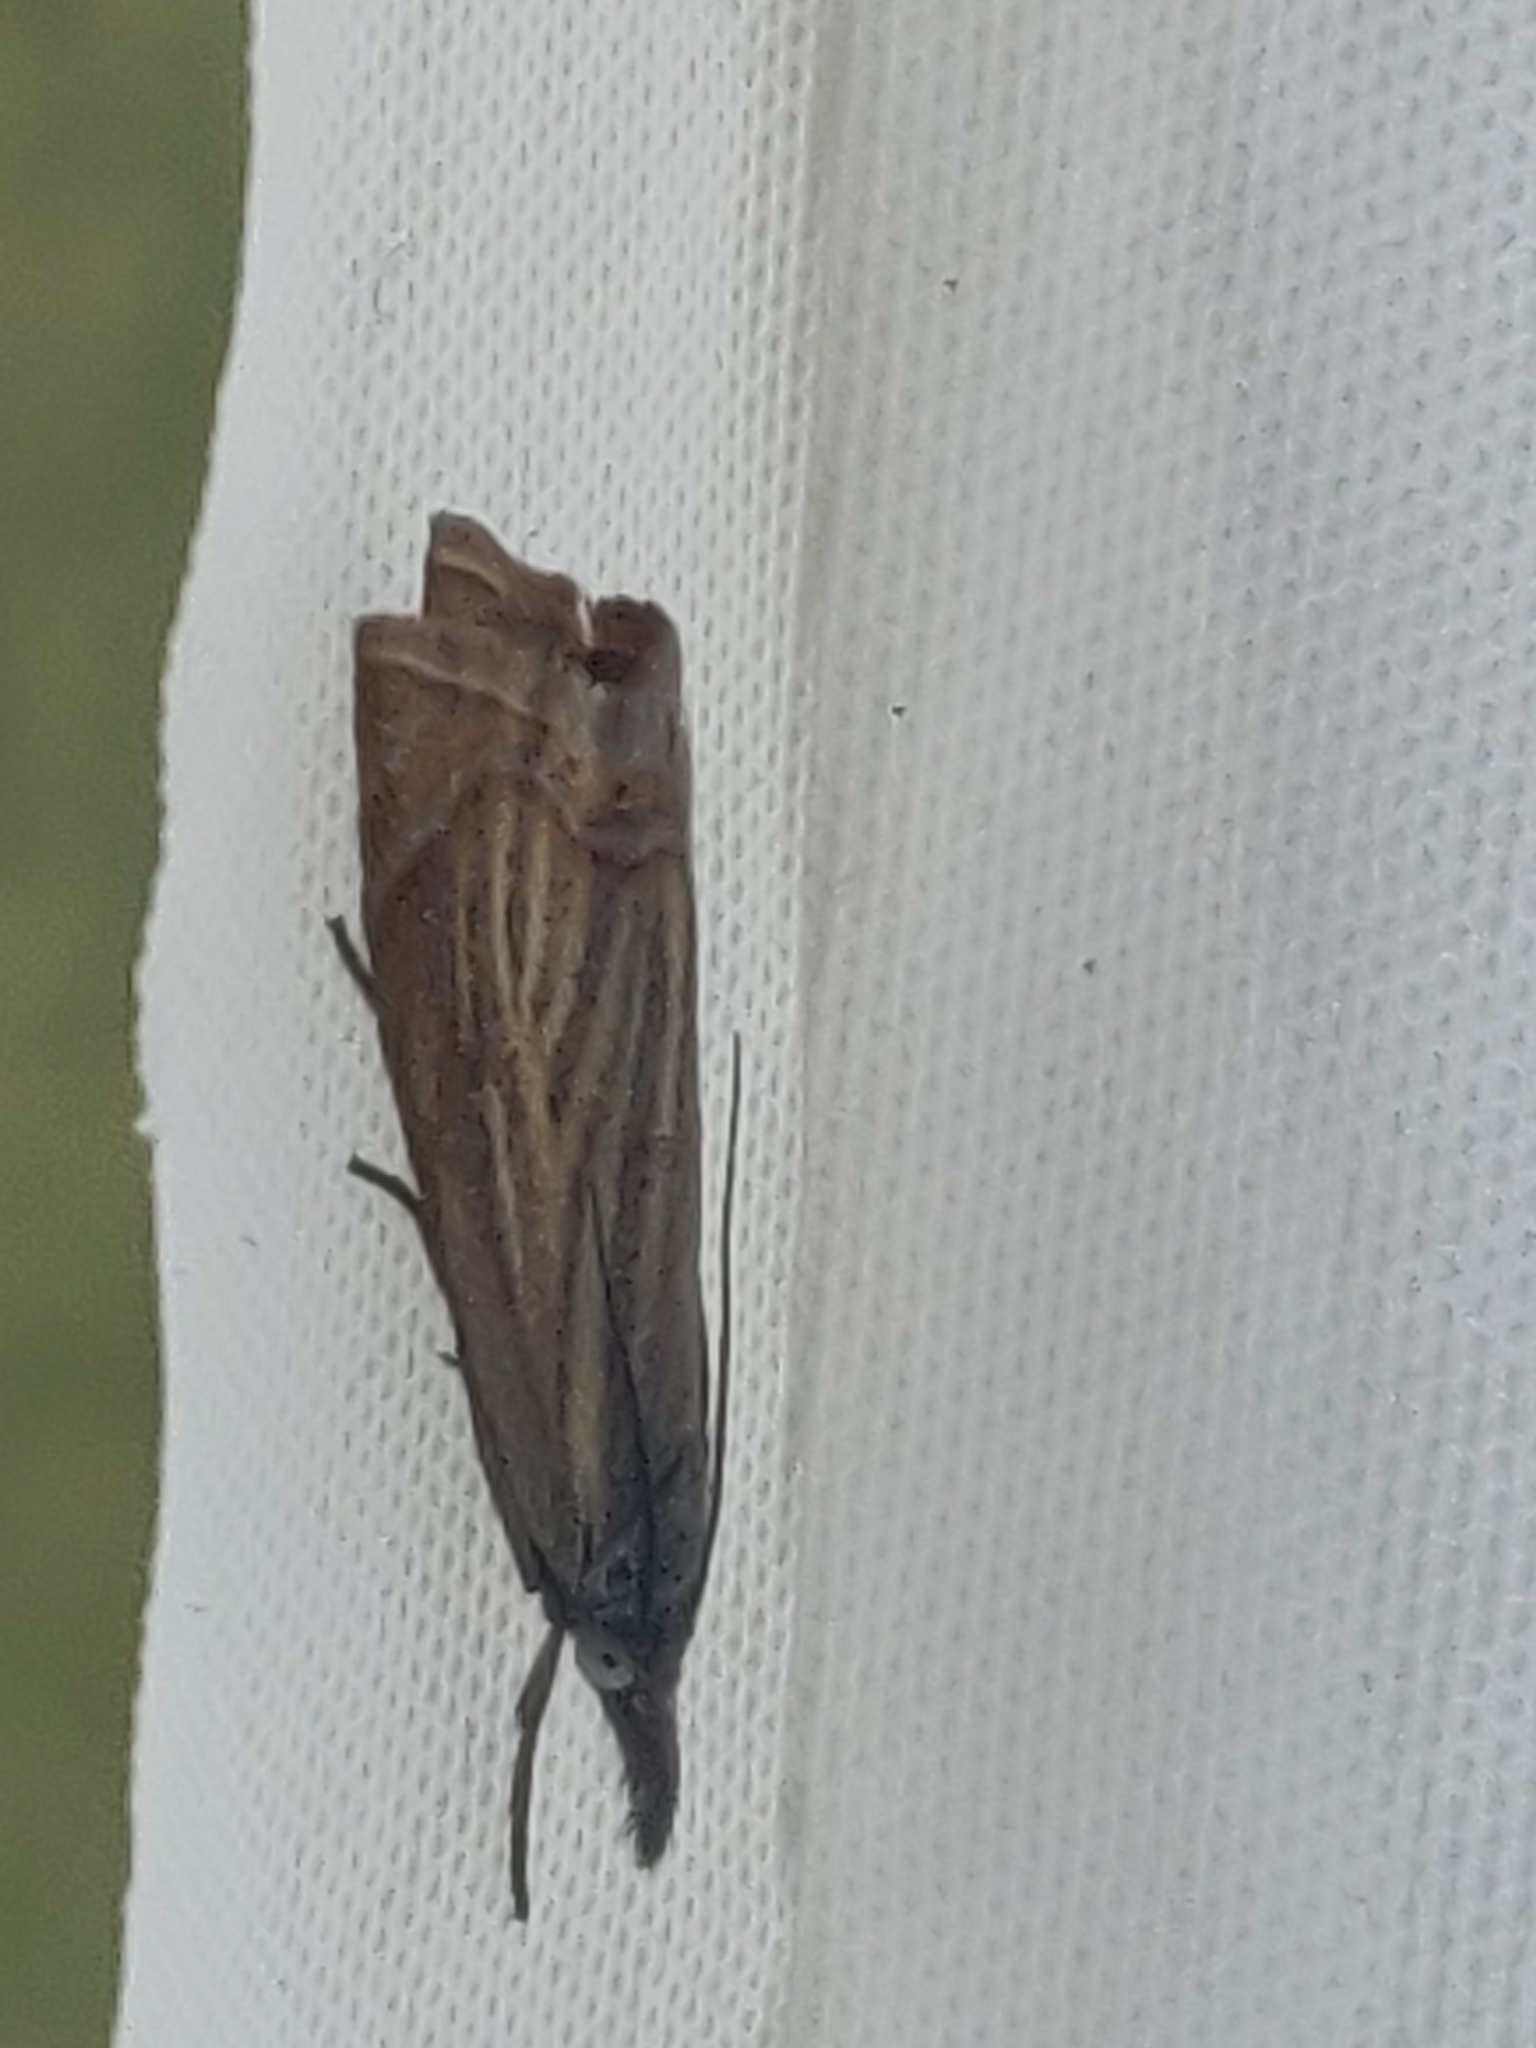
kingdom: Animalia
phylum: Arthropoda
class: Insecta
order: Lepidoptera
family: Crambidae
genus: Chrysoteuchia
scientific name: Chrysoteuchia culmella
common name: Garden grass-veneer
